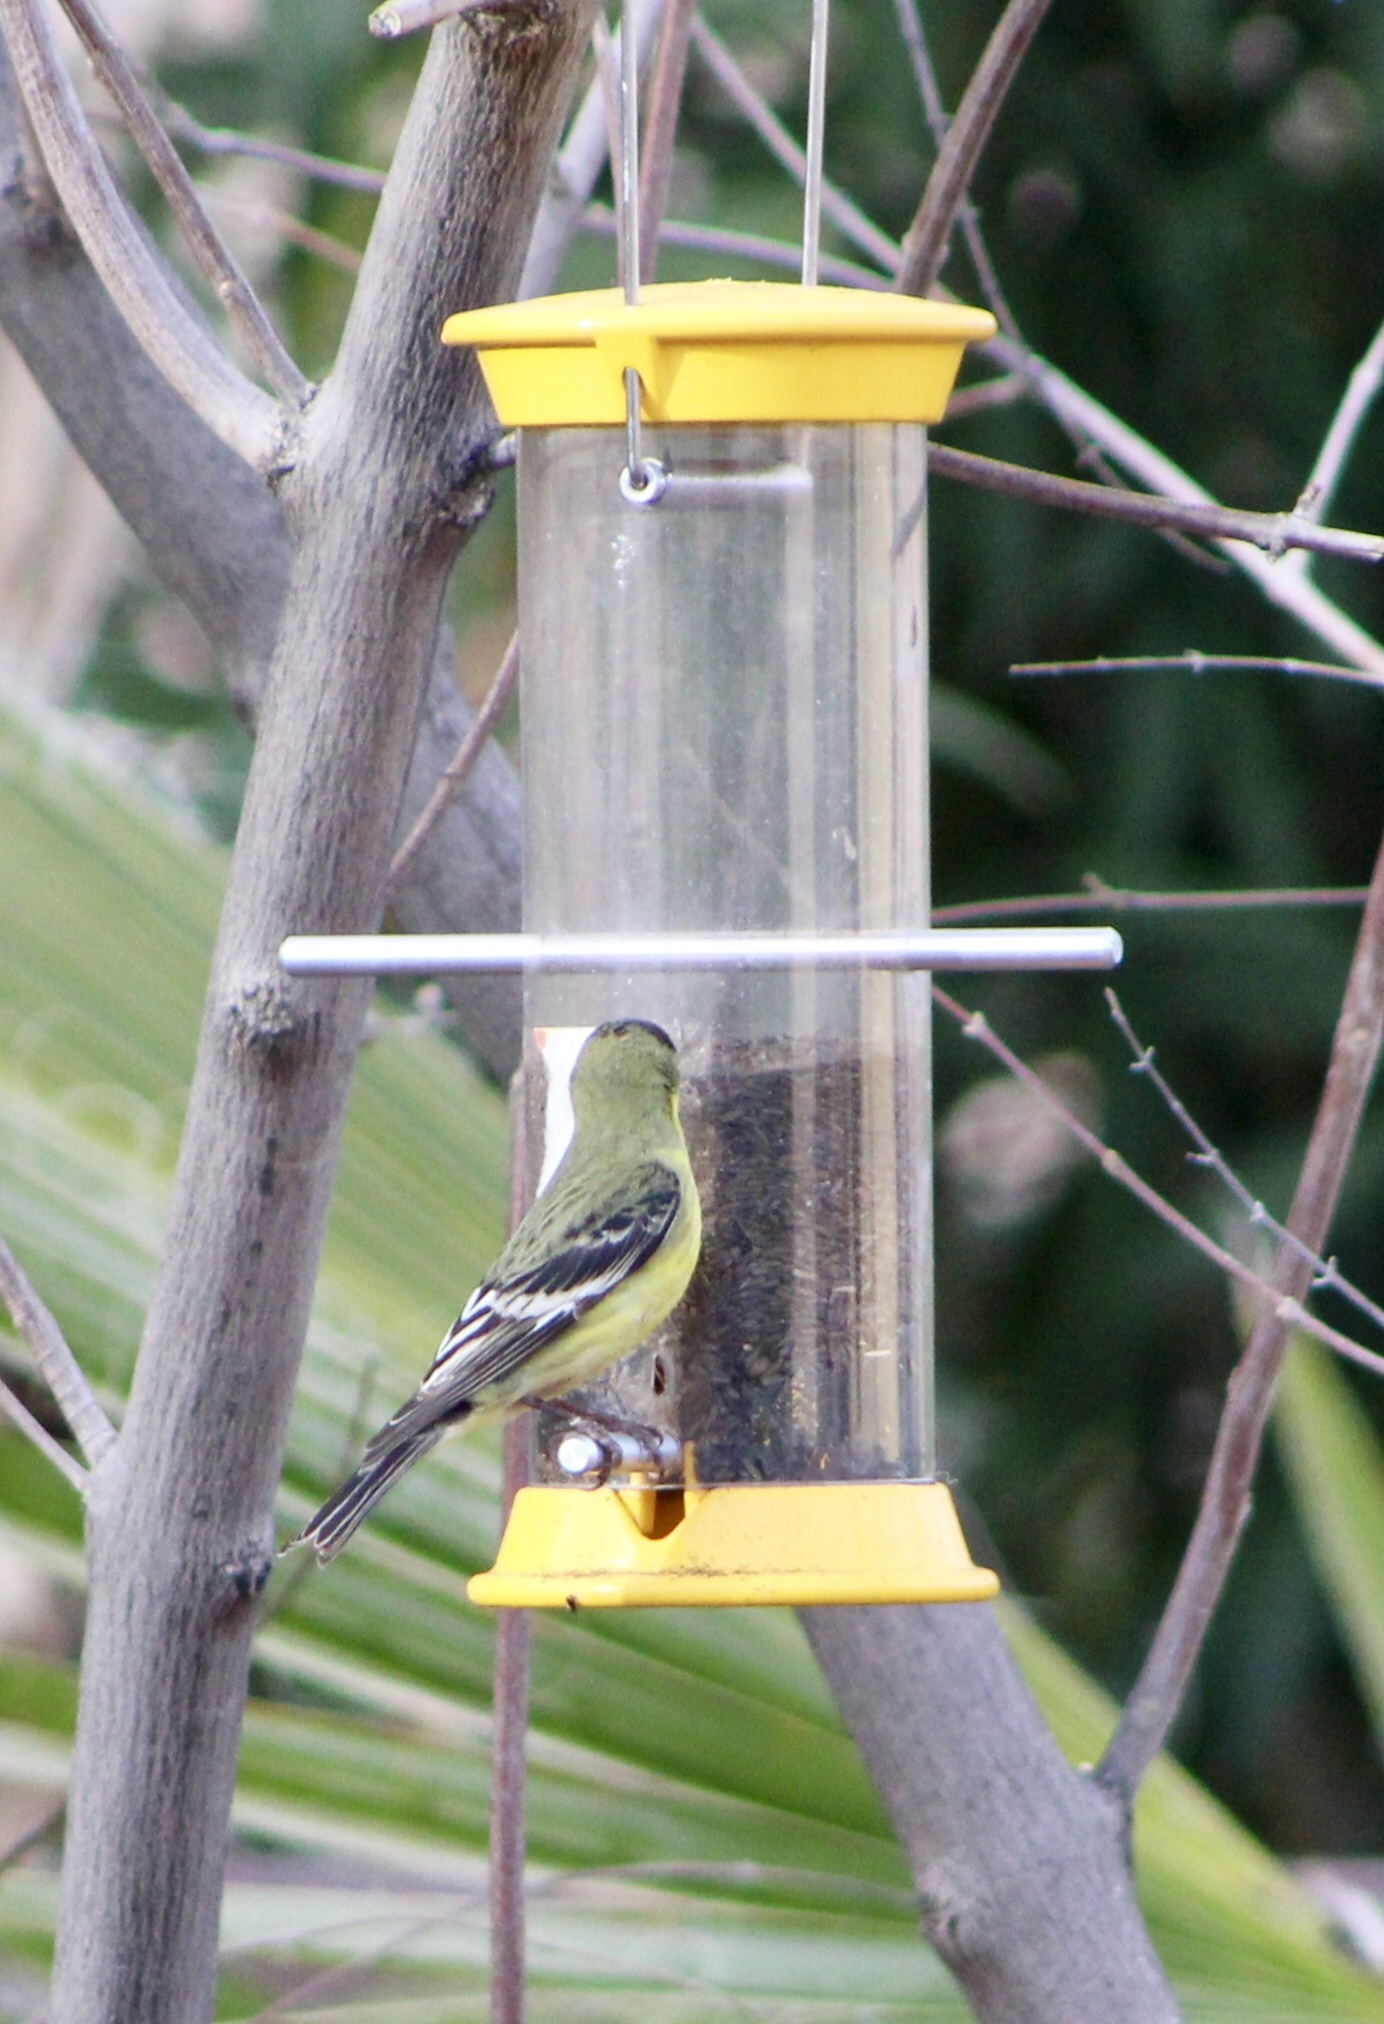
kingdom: Animalia
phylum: Chordata
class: Aves
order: Passeriformes
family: Fringillidae
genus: Spinus
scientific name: Spinus psaltria
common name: Lesser goldfinch
